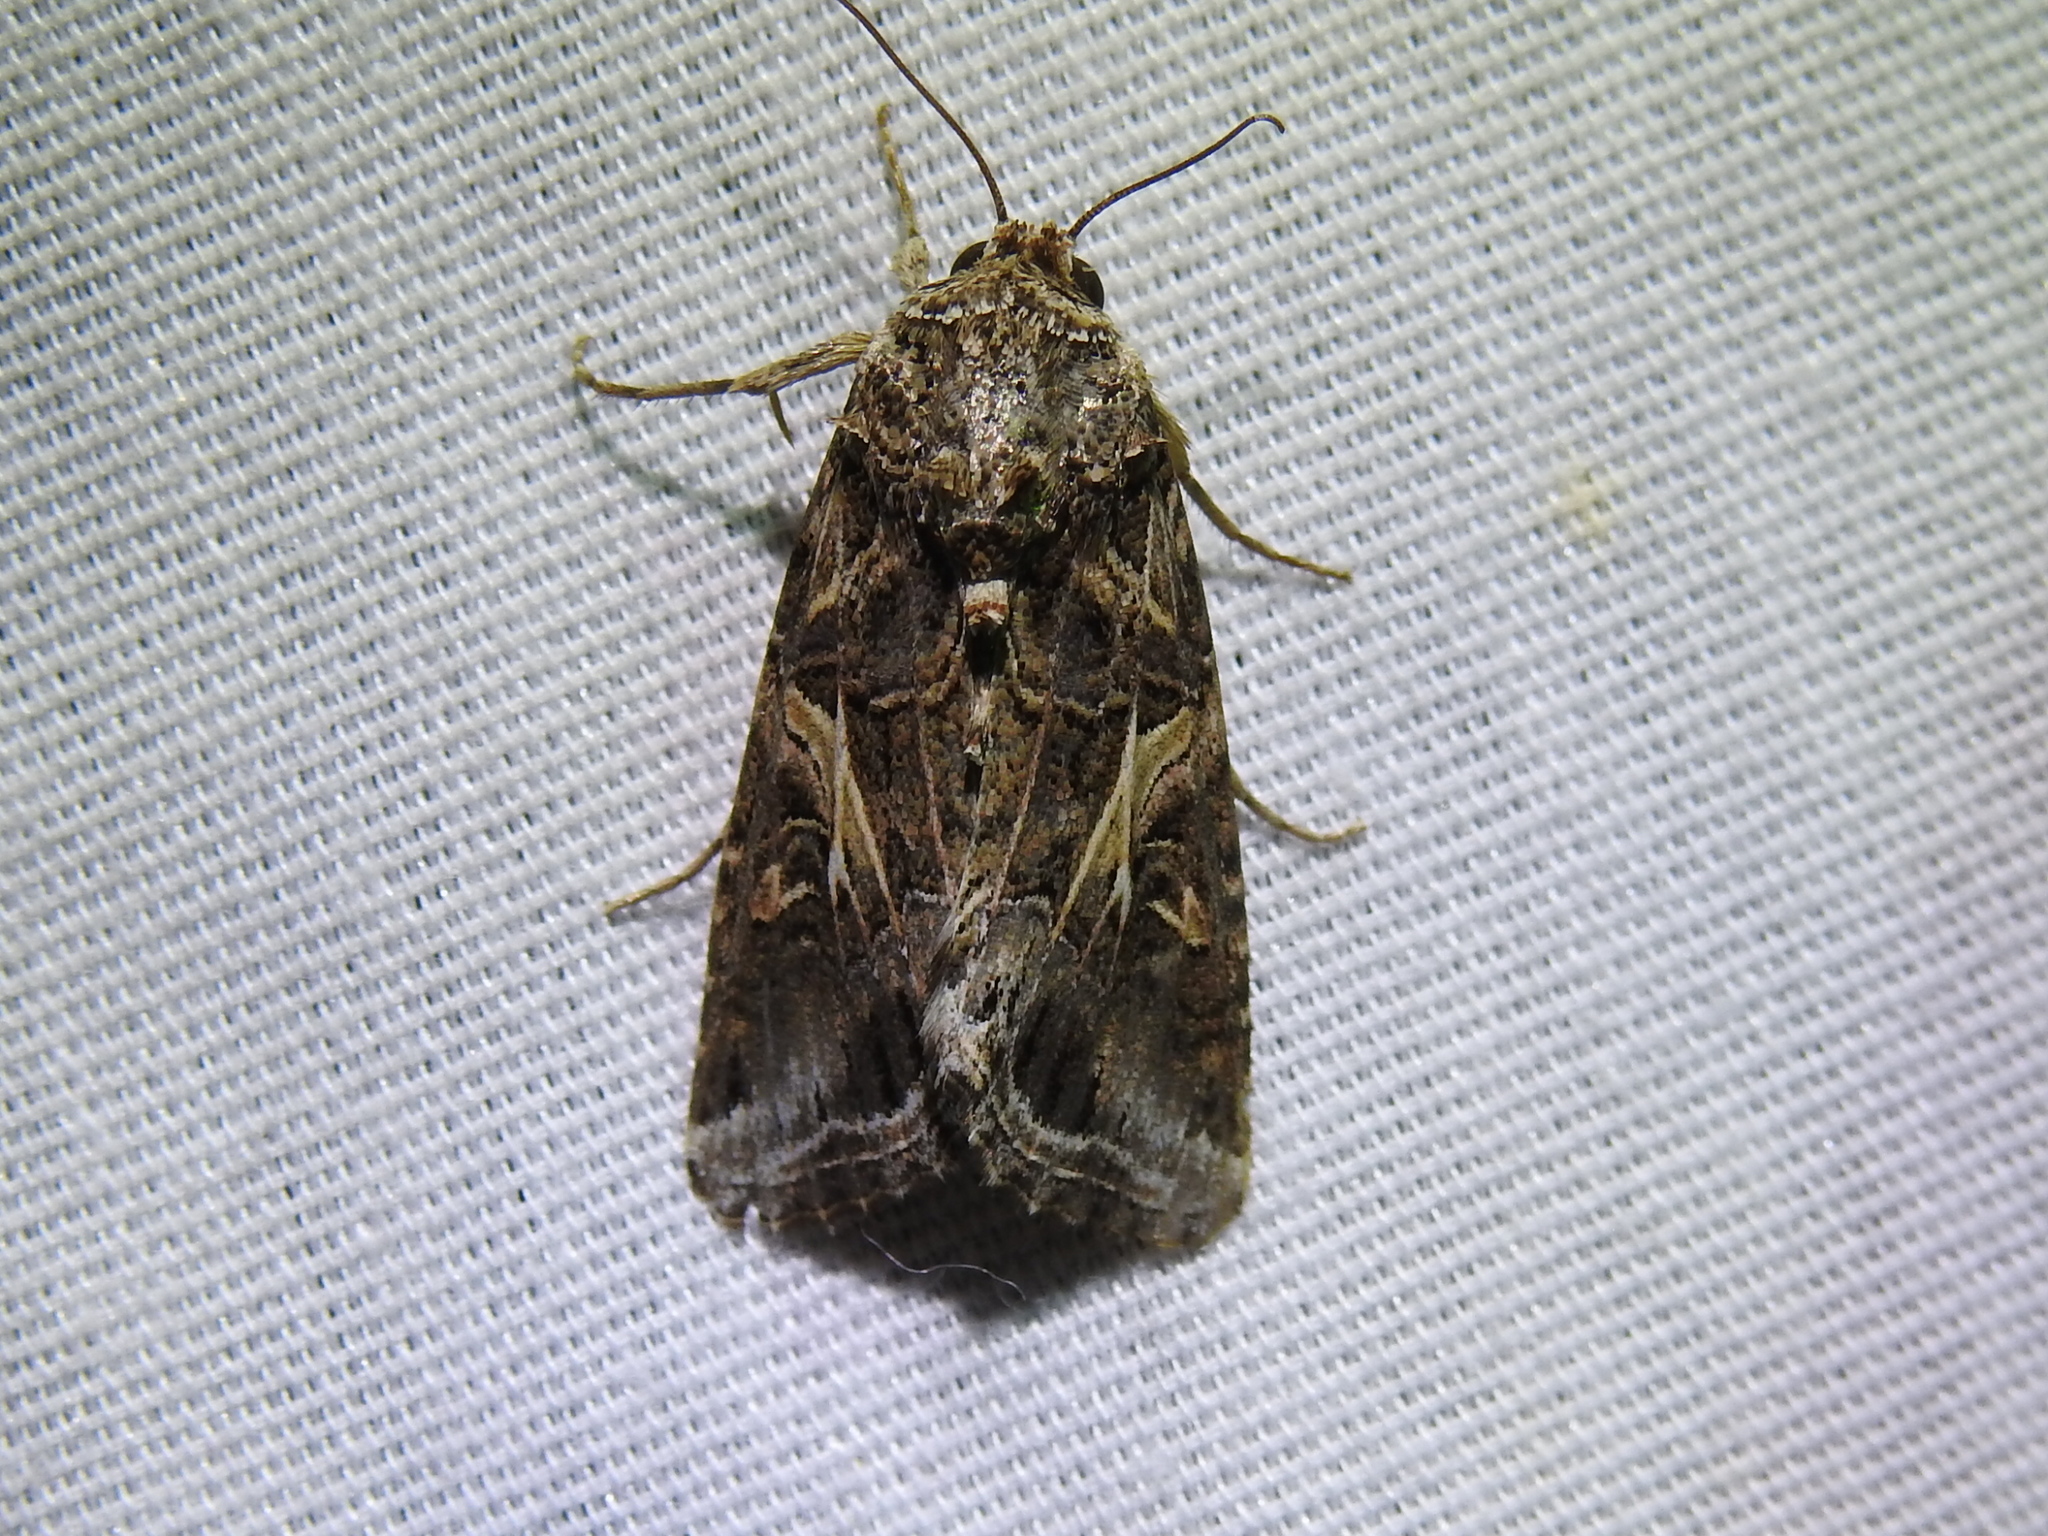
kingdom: Animalia
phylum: Arthropoda
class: Insecta
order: Lepidoptera
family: Noctuidae
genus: Spodoptera
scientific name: Spodoptera ornithogalli
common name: Yellow-striped armyworm
